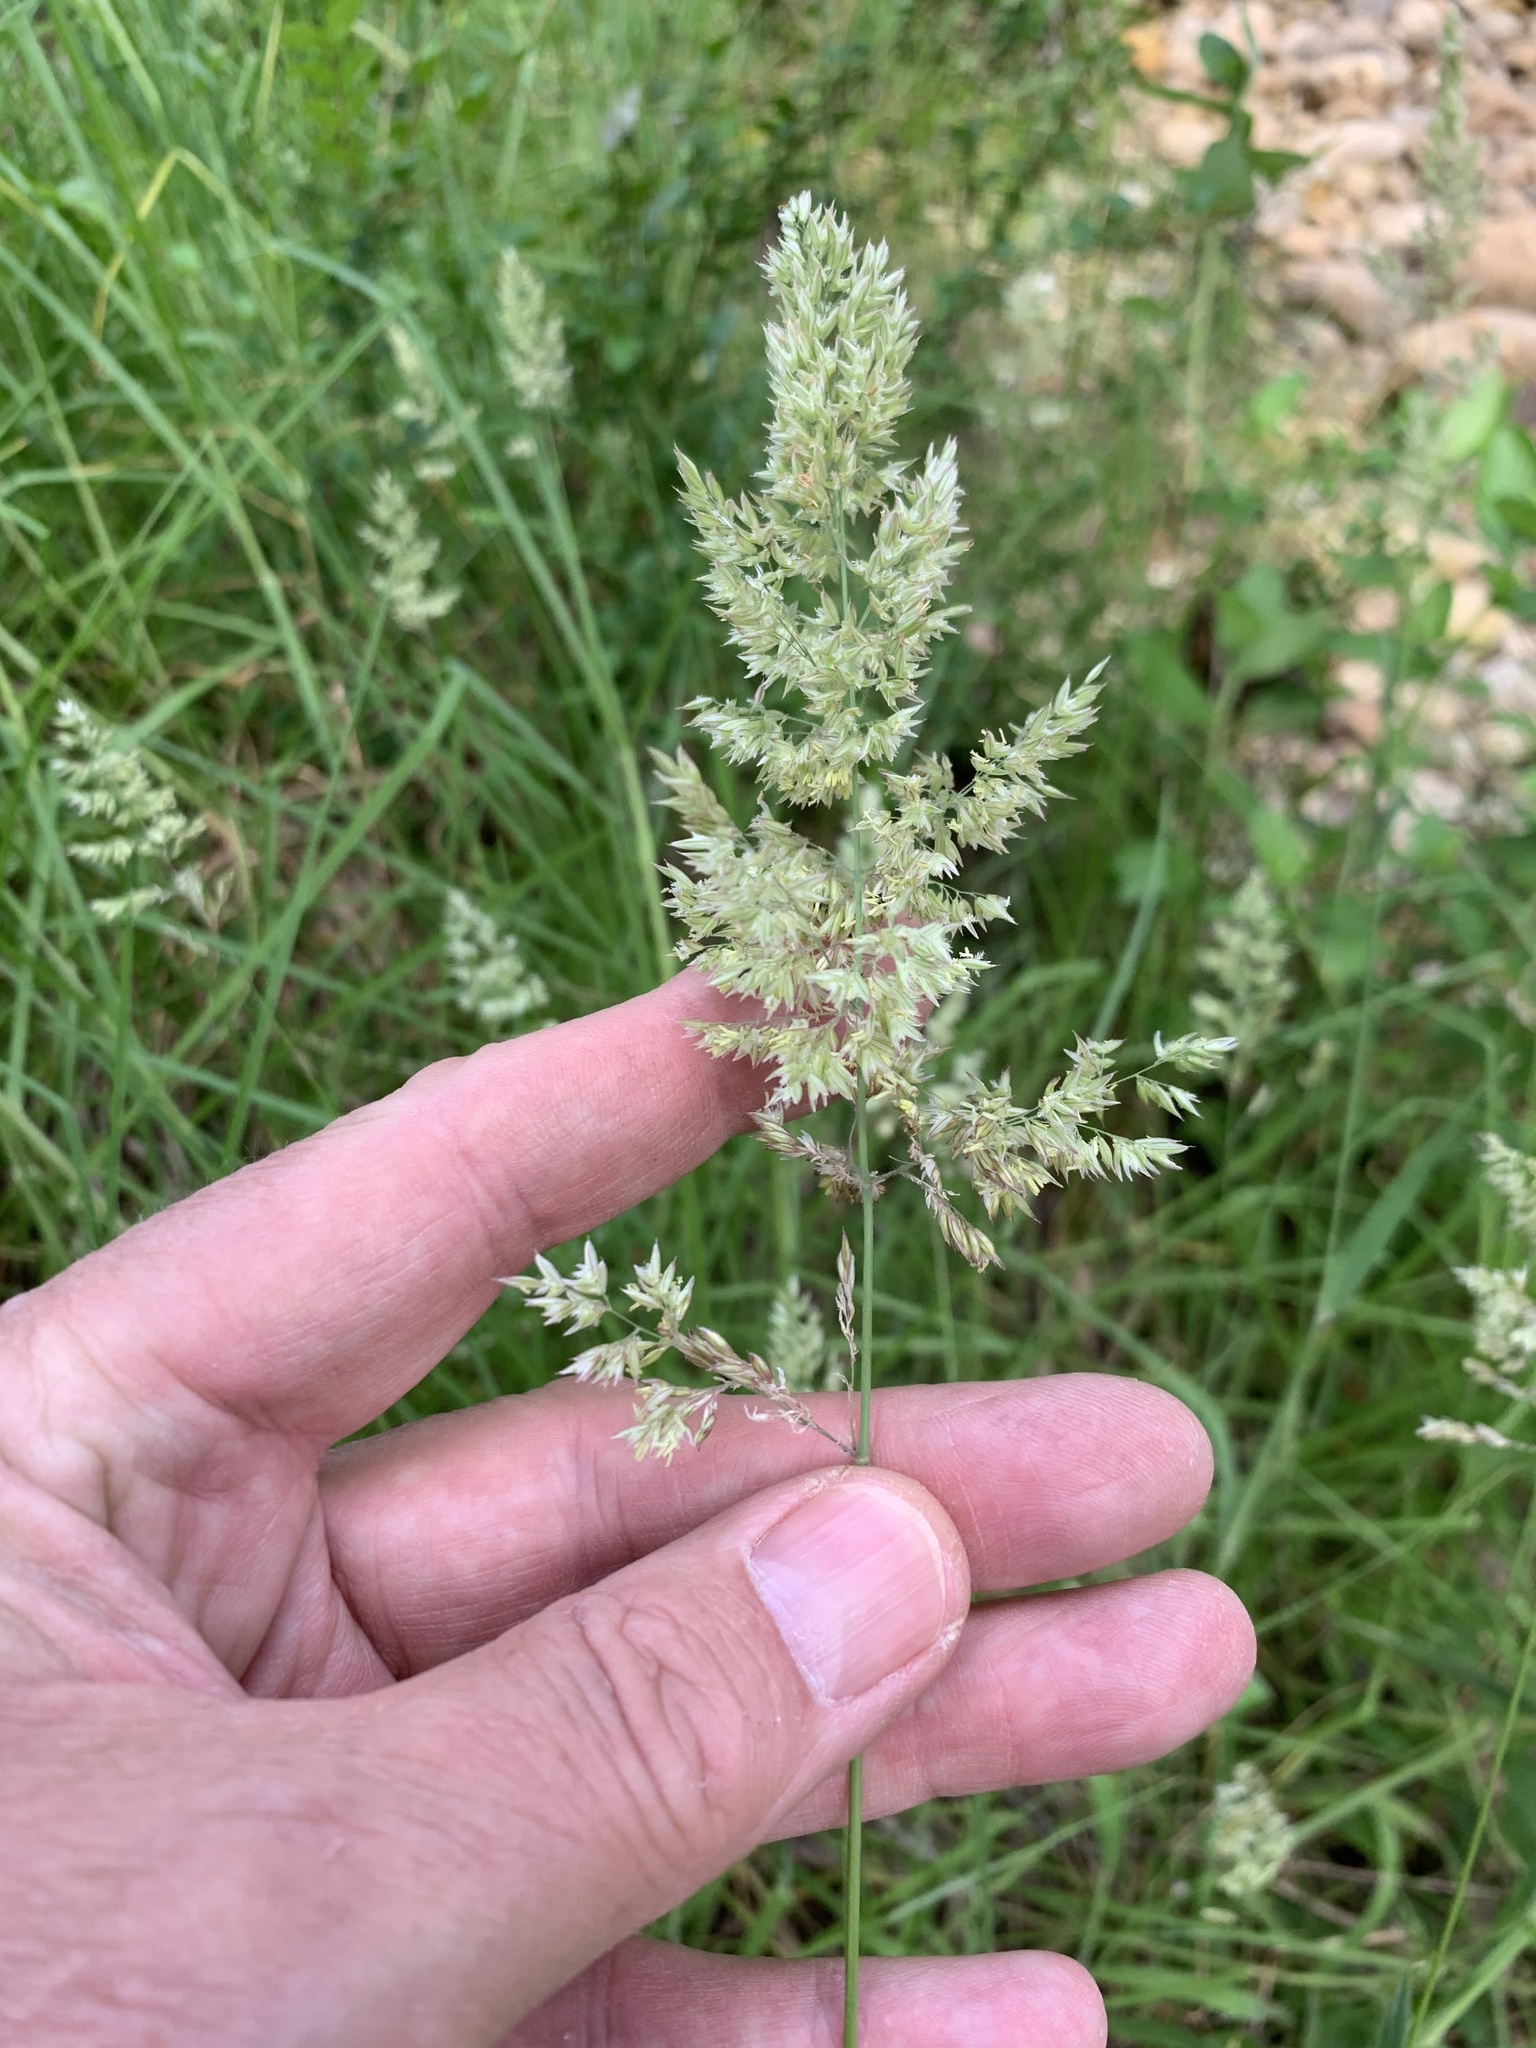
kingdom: Plantae
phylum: Tracheophyta
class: Liliopsida
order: Poales
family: Poaceae
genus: Holcus
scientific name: Holcus lanatus
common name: Yorkshire-fog
